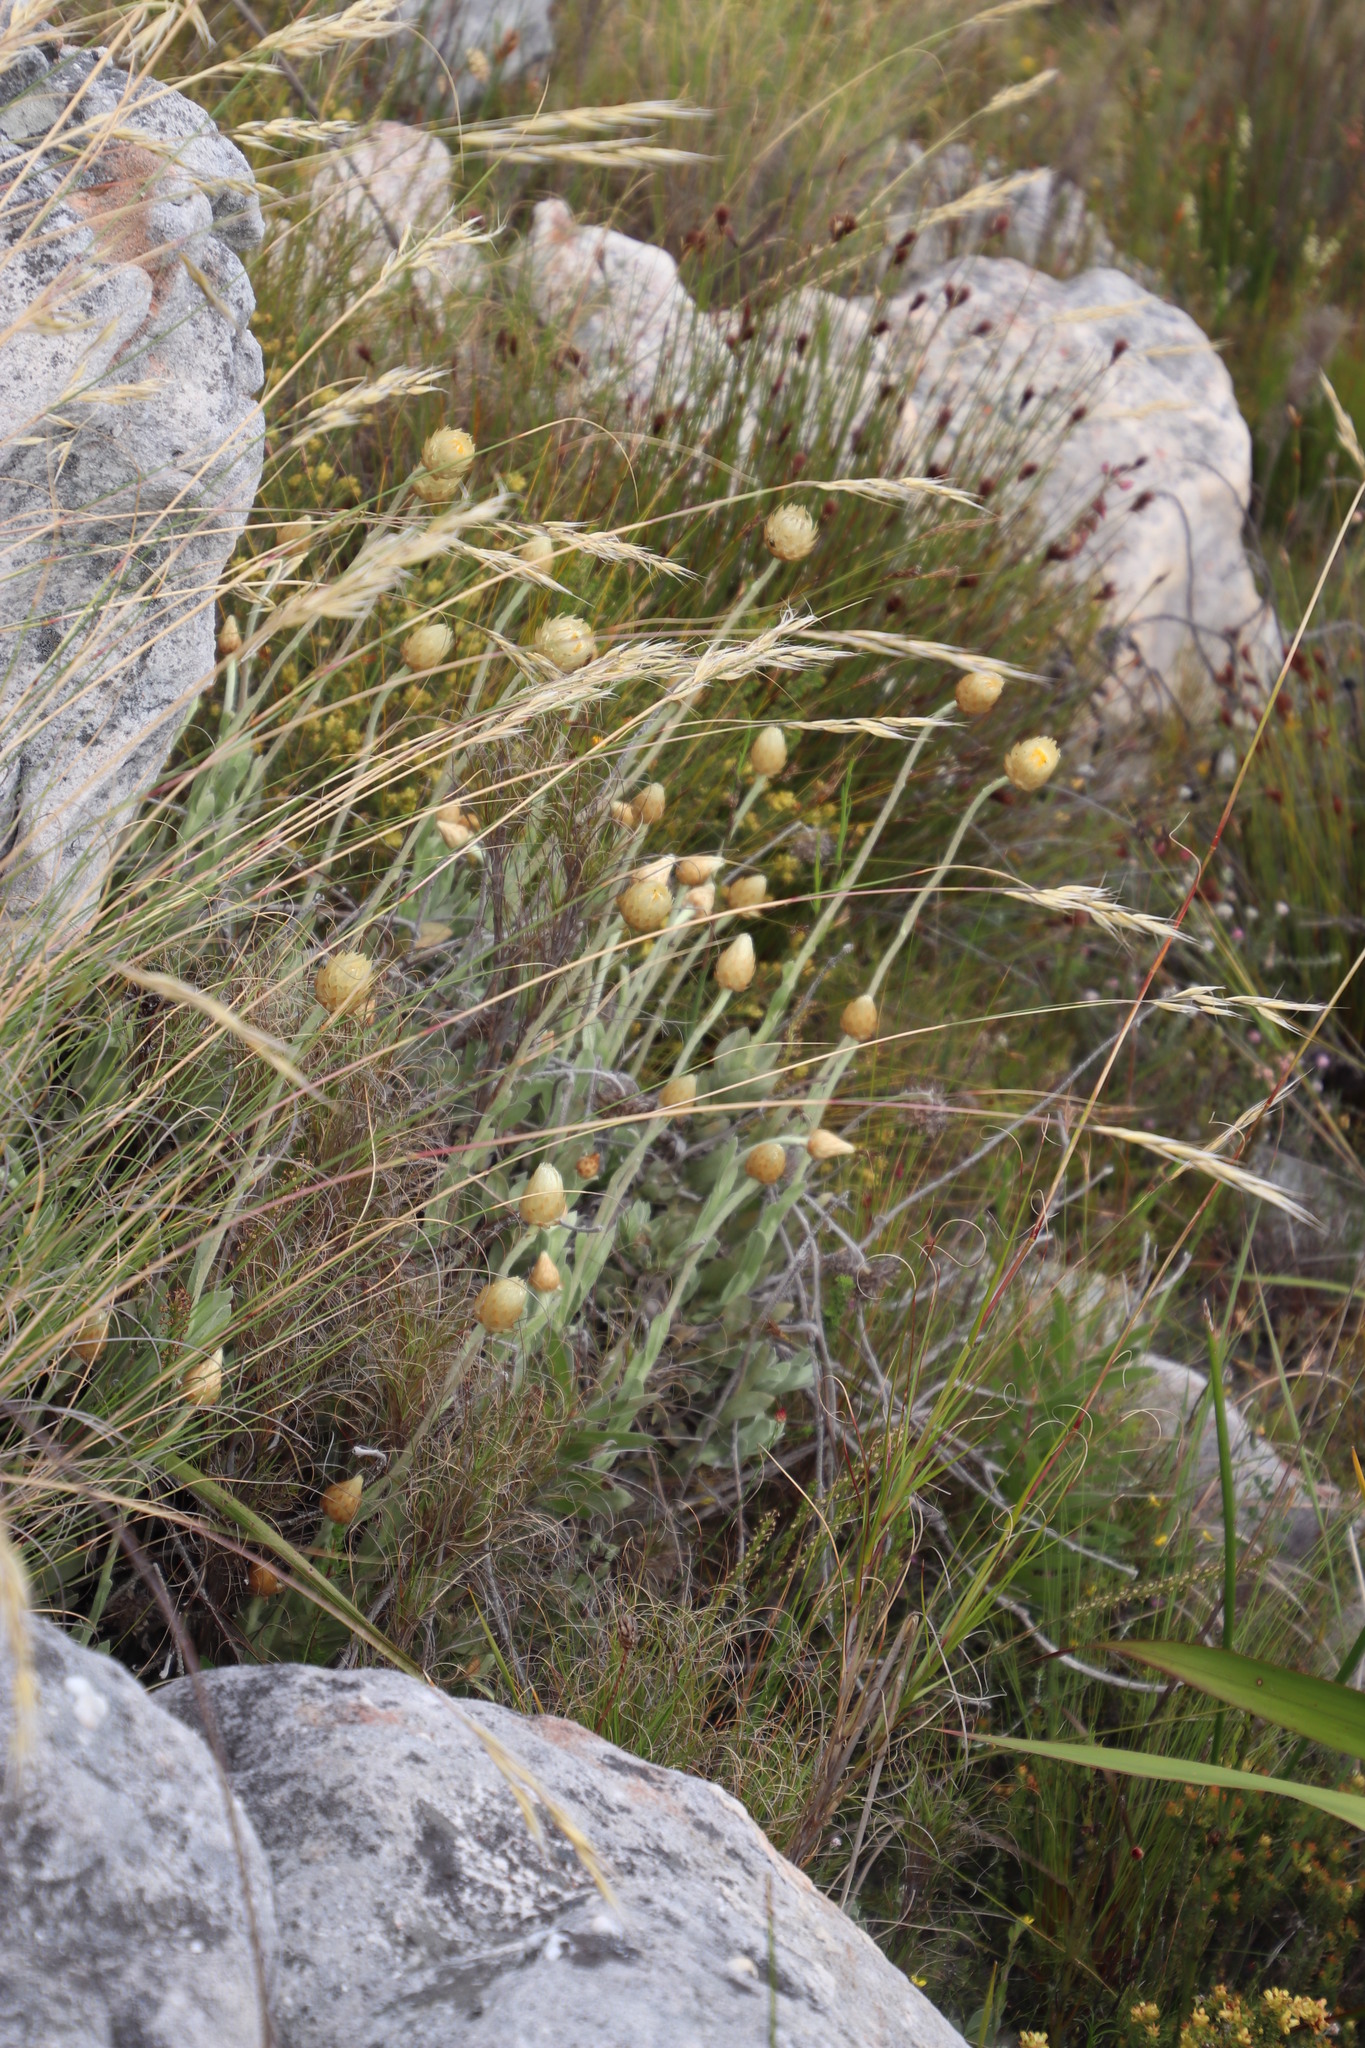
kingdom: Plantae
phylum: Tracheophyta
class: Magnoliopsida
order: Asterales
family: Asteraceae
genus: Syncarpha
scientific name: Syncarpha speciosissima
